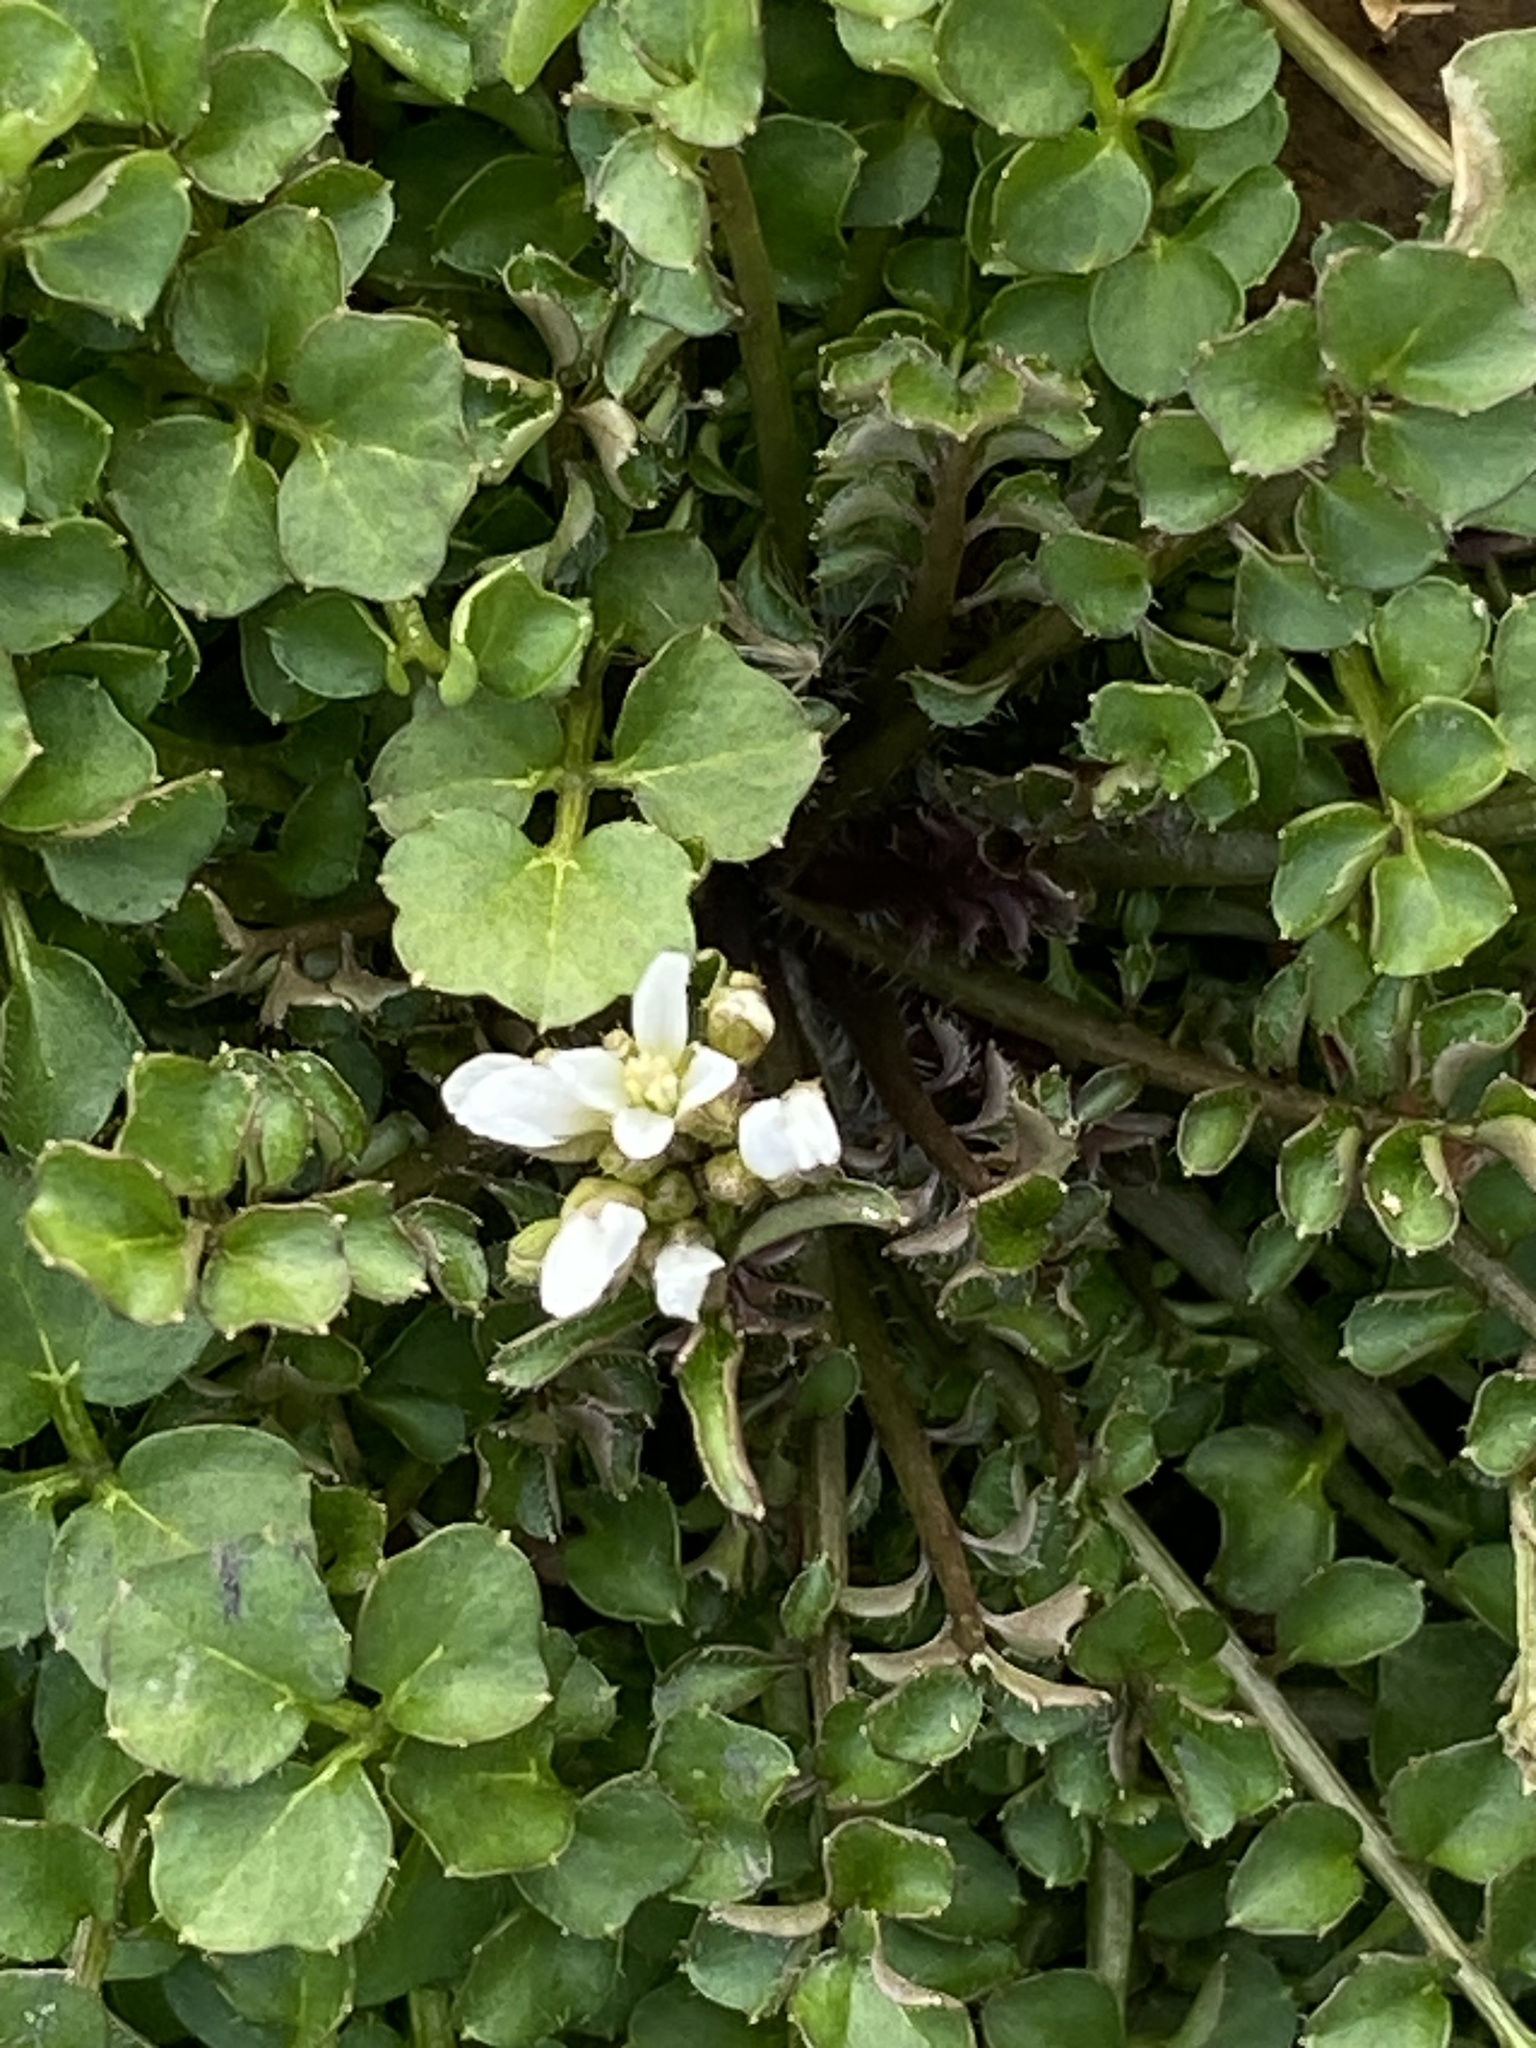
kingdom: Plantae
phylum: Tracheophyta
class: Magnoliopsida
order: Brassicales
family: Brassicaceae
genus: Cardamine
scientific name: Cardamine hirsuta
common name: Hairy bittercress
